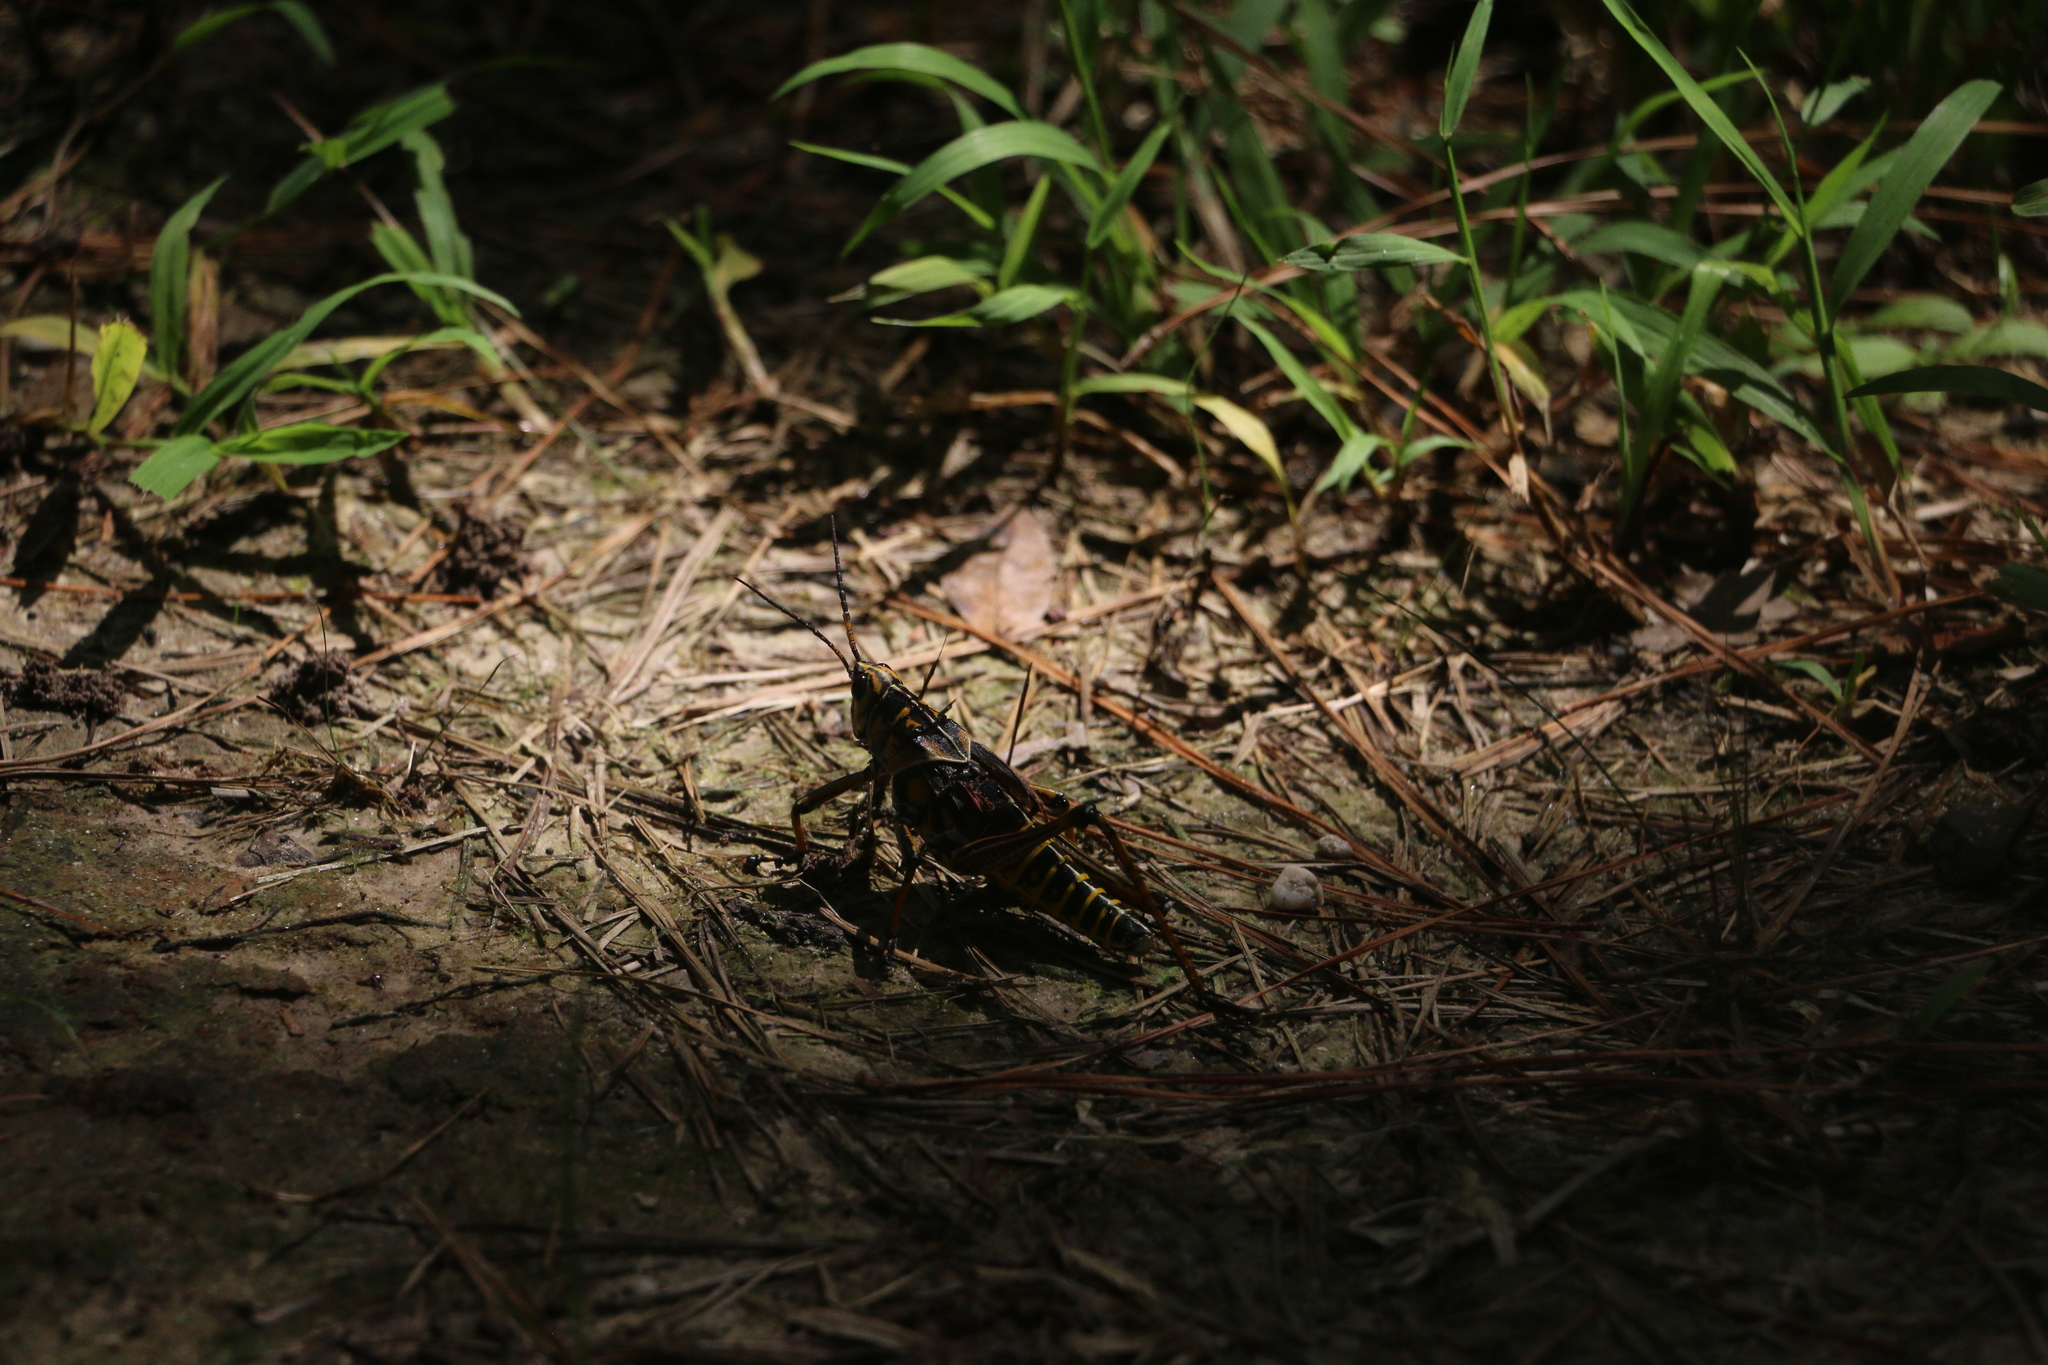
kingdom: Animalia
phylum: Arthropoda
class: Insecta
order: Orthoptera
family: Romaleidae
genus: Romalea
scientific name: Romalea microptera
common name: Eastern lubber grasshopper
